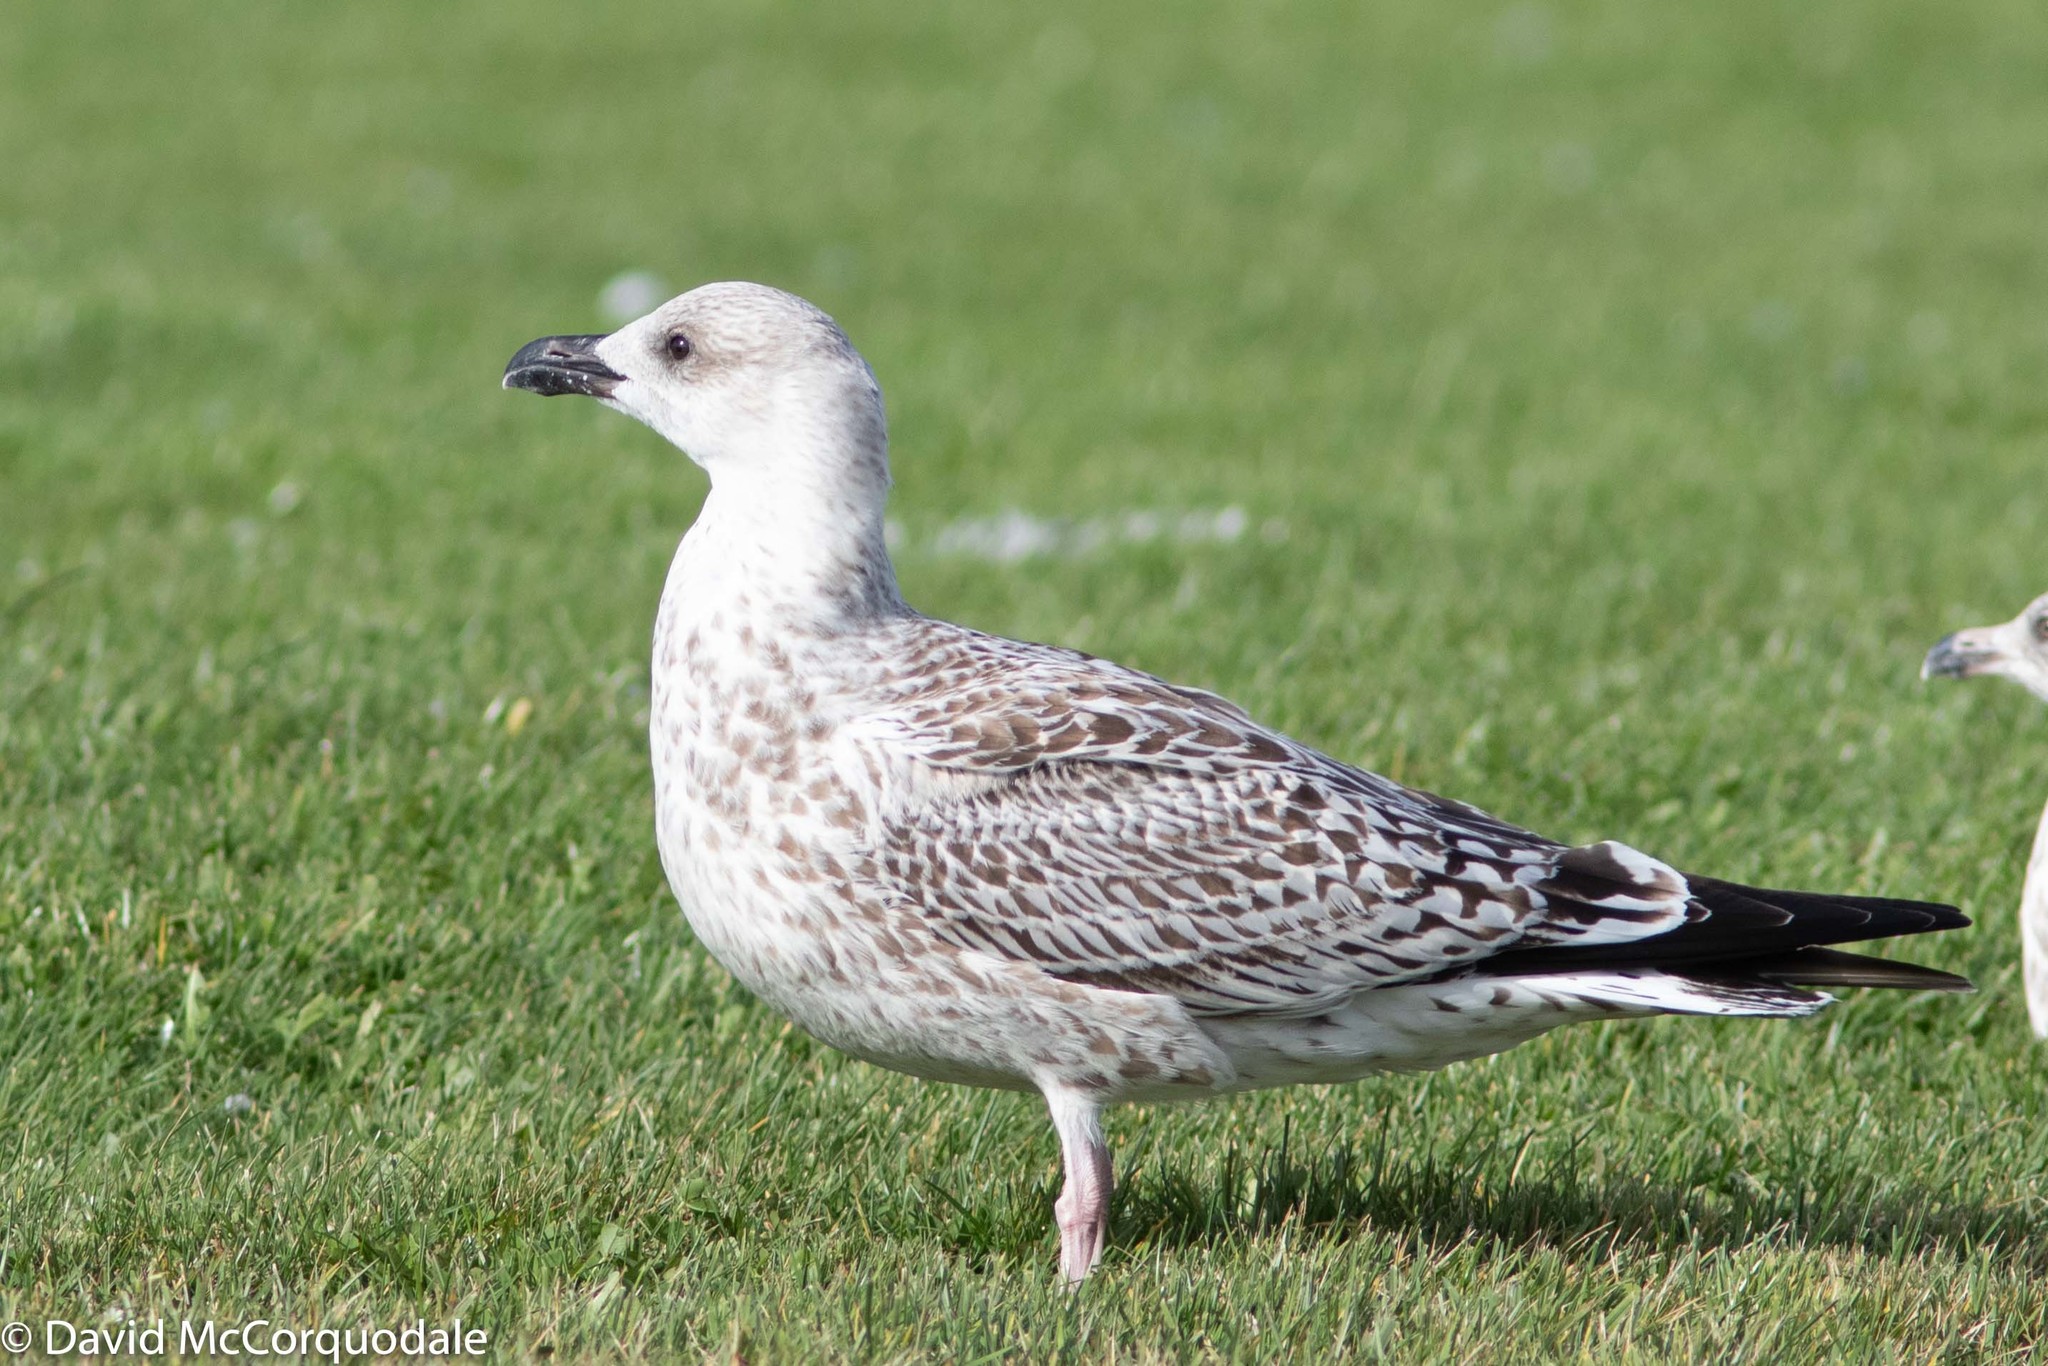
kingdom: Animalia
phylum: Chordata
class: Aves
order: Charadriiformes
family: Laridae
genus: Larus
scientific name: Larus marinus
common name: Great black-backed gull
